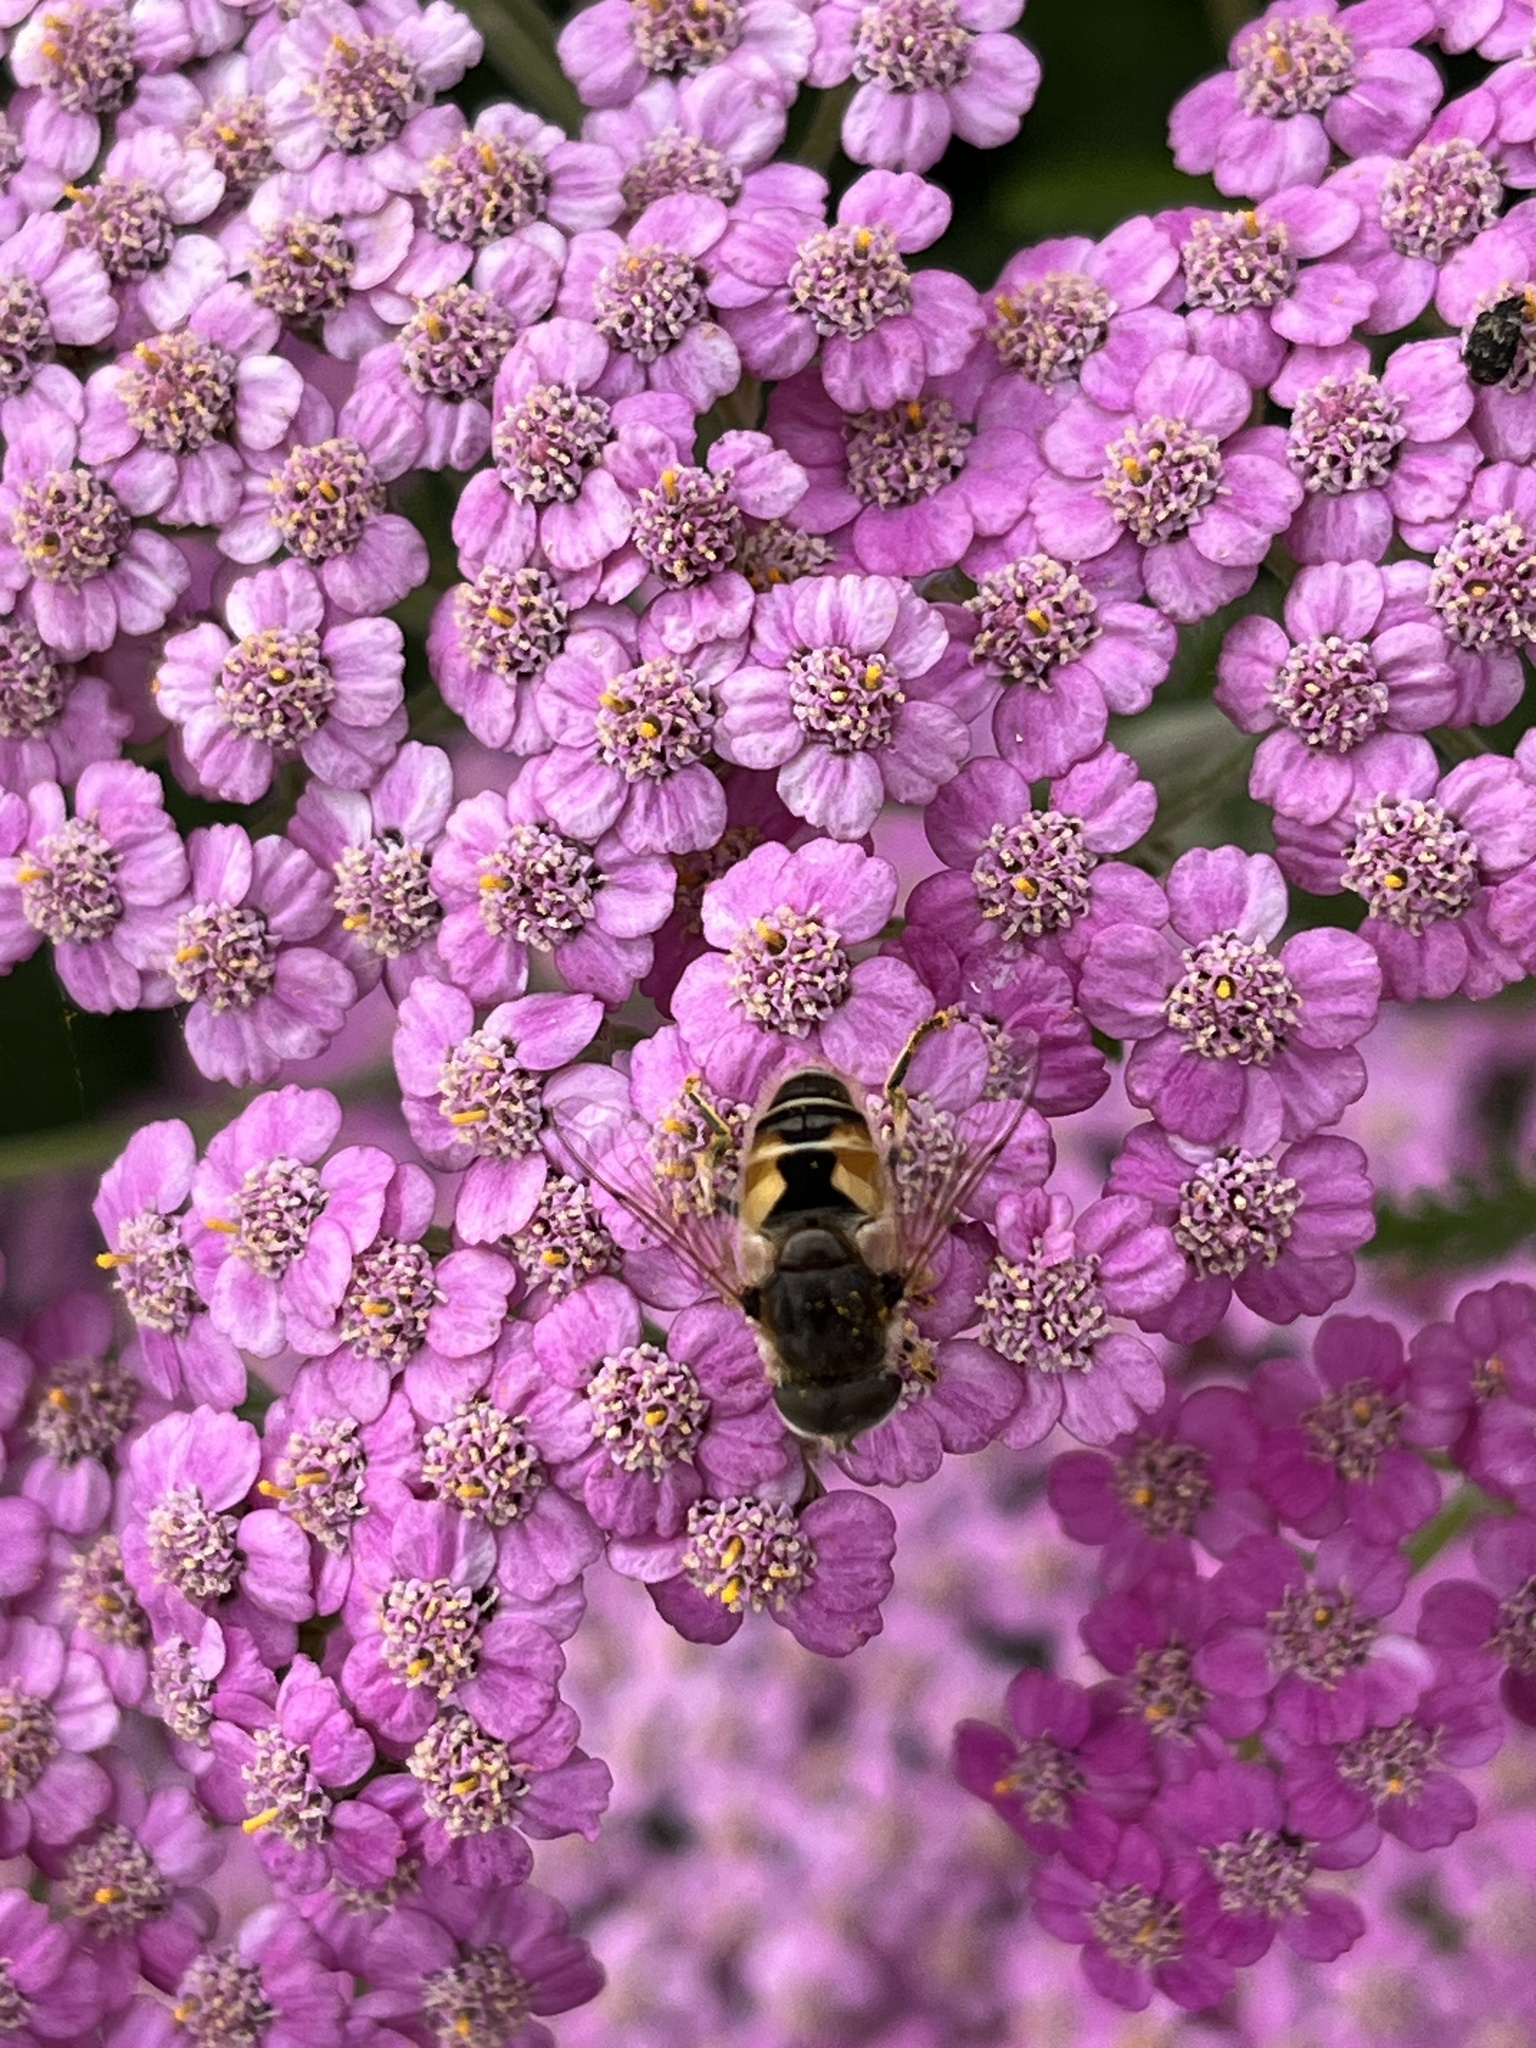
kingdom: Animalia
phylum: Arthropoda
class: Insecta
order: Diptera
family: Syrphidae
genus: Eristalis
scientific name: Eristalis arbustorum
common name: Hover fly
